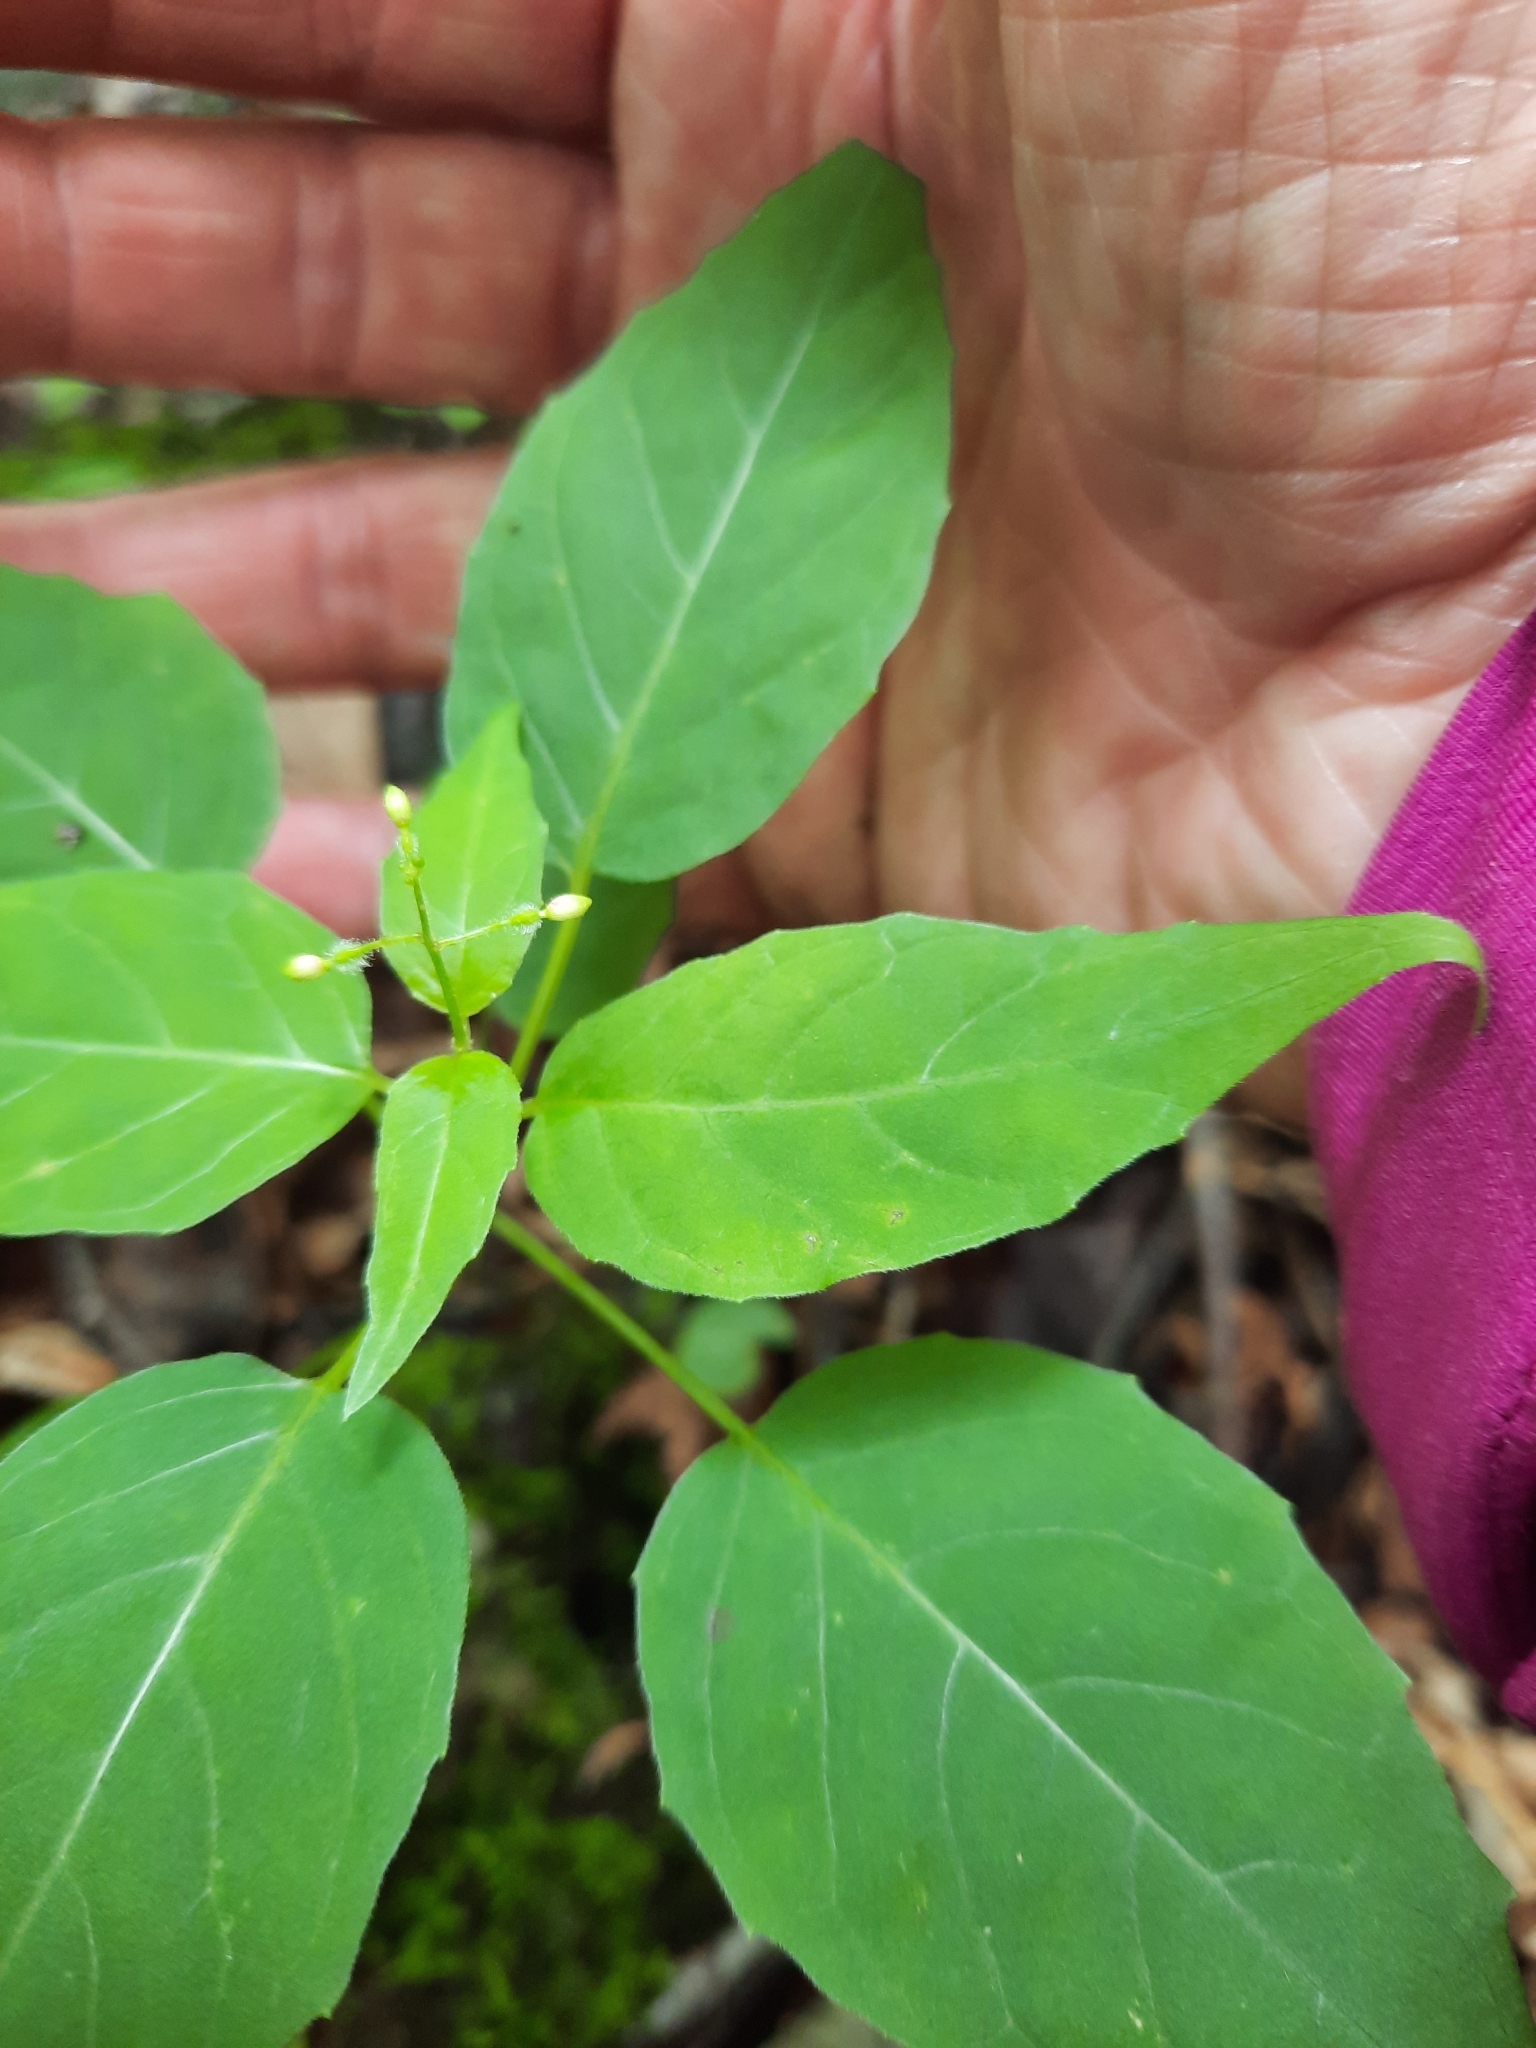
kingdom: Plantae
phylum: Tracheophyta
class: Magnoliopsida
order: Myrtales
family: Onagraceae
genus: Circaea
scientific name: Circaea canadensis
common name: Broad-leaved enchanter's nightshade
